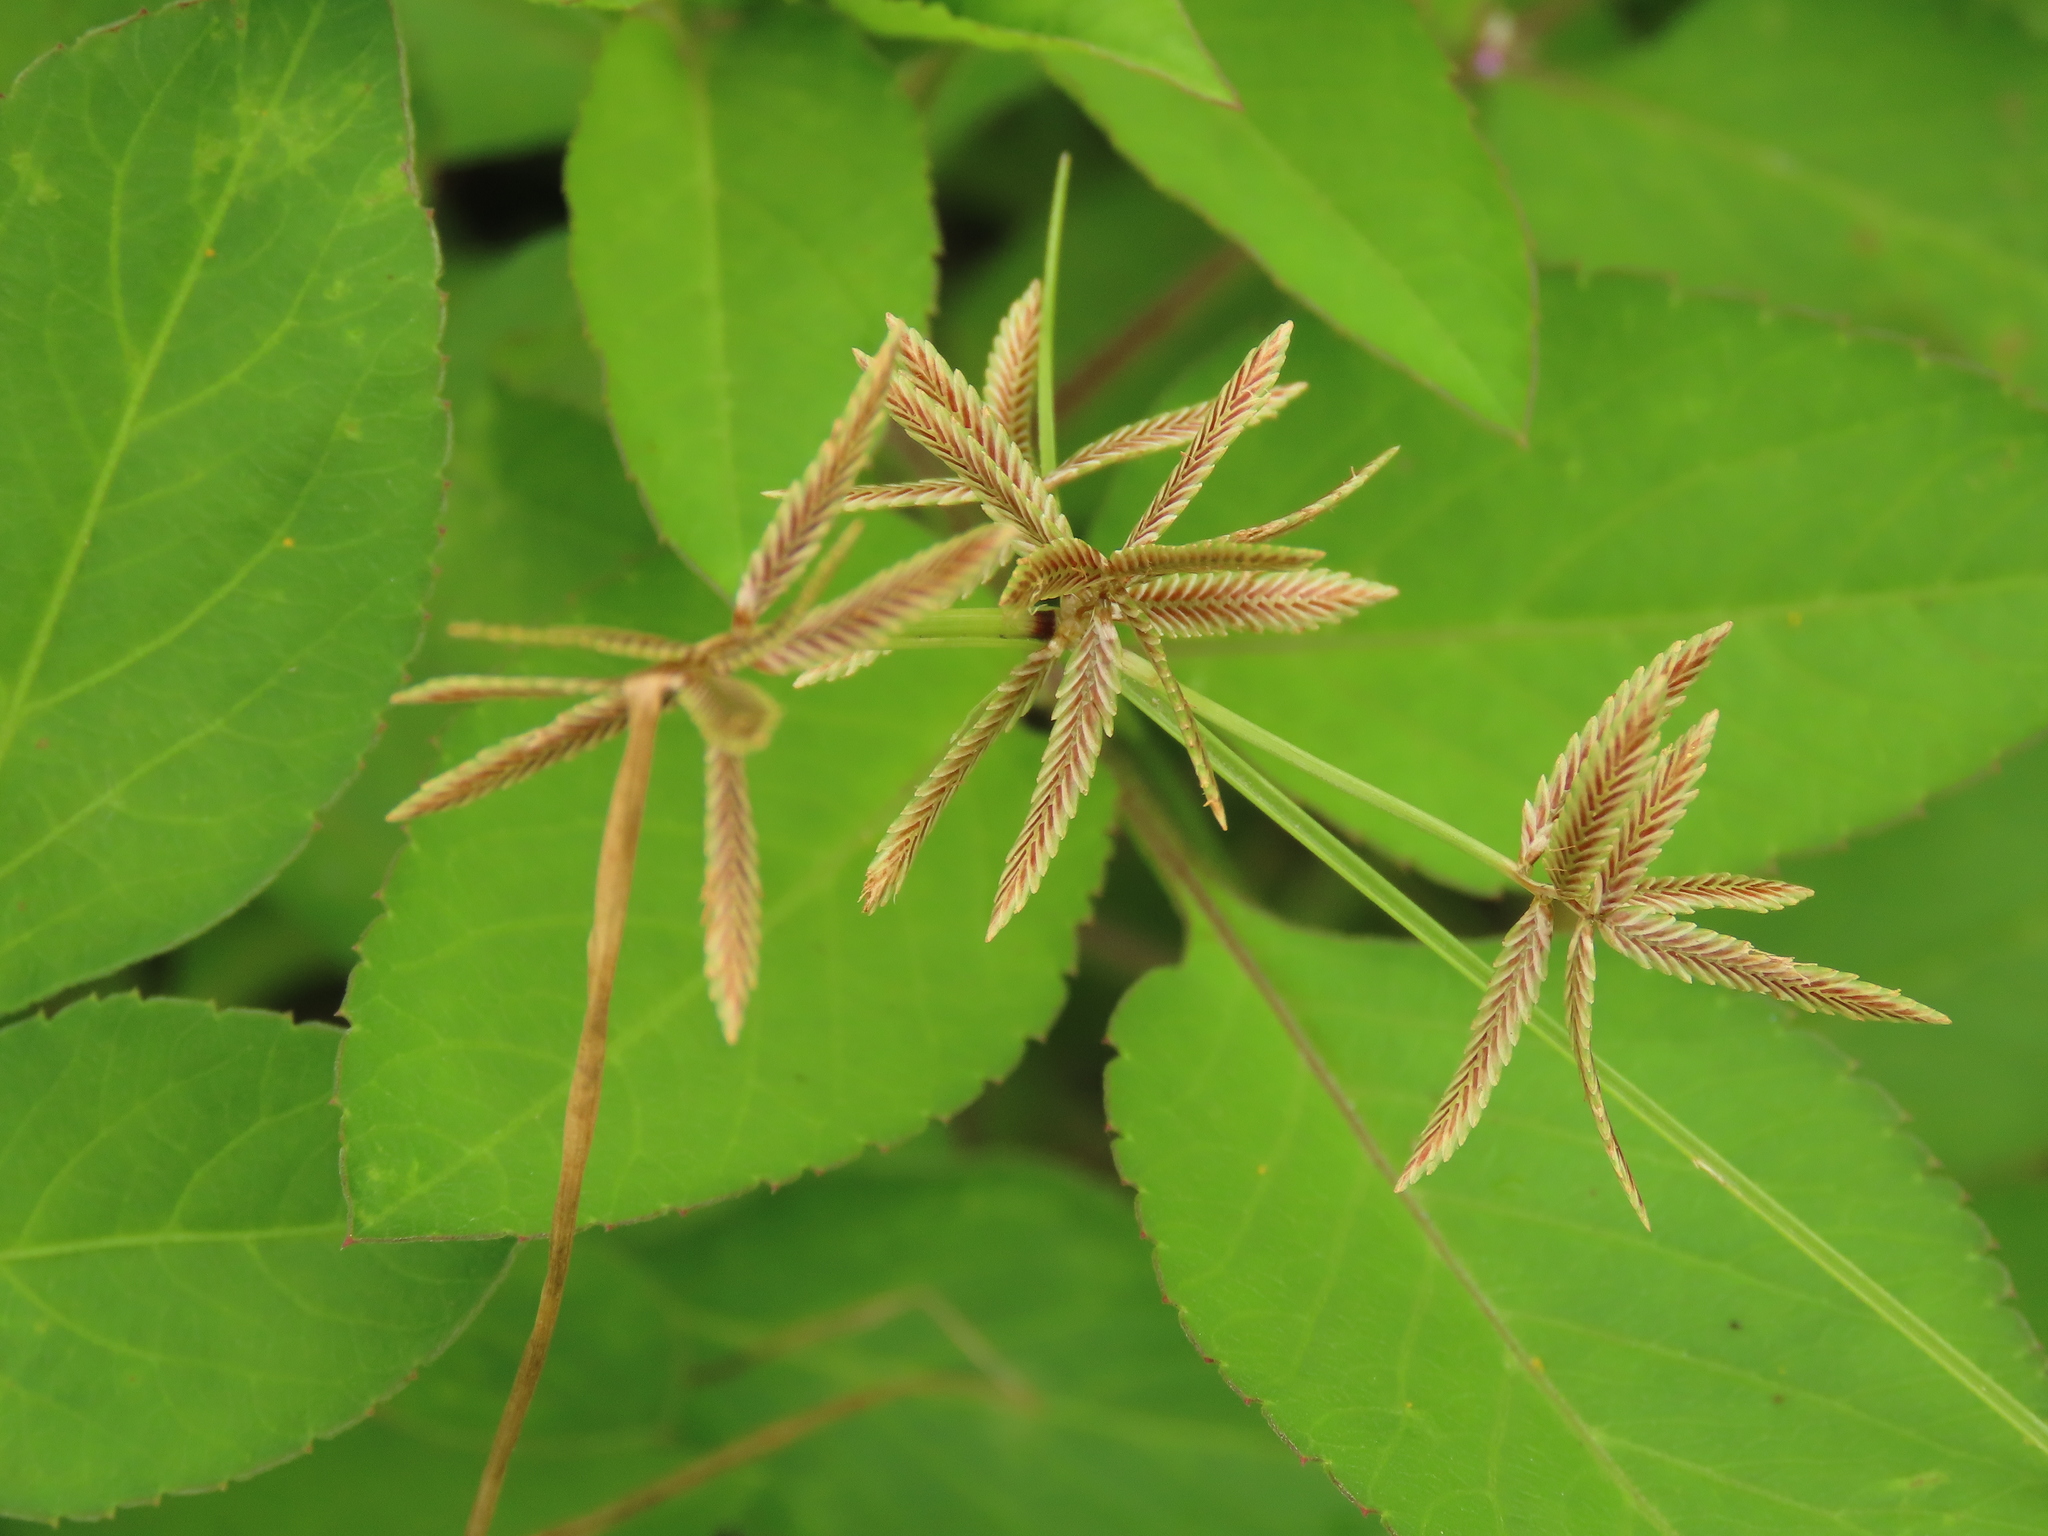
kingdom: Plantae
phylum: Tracheophyta
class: Liliopsida
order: Poales
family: Cyperaceae
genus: Cyperus
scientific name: Cyperus flavidus
